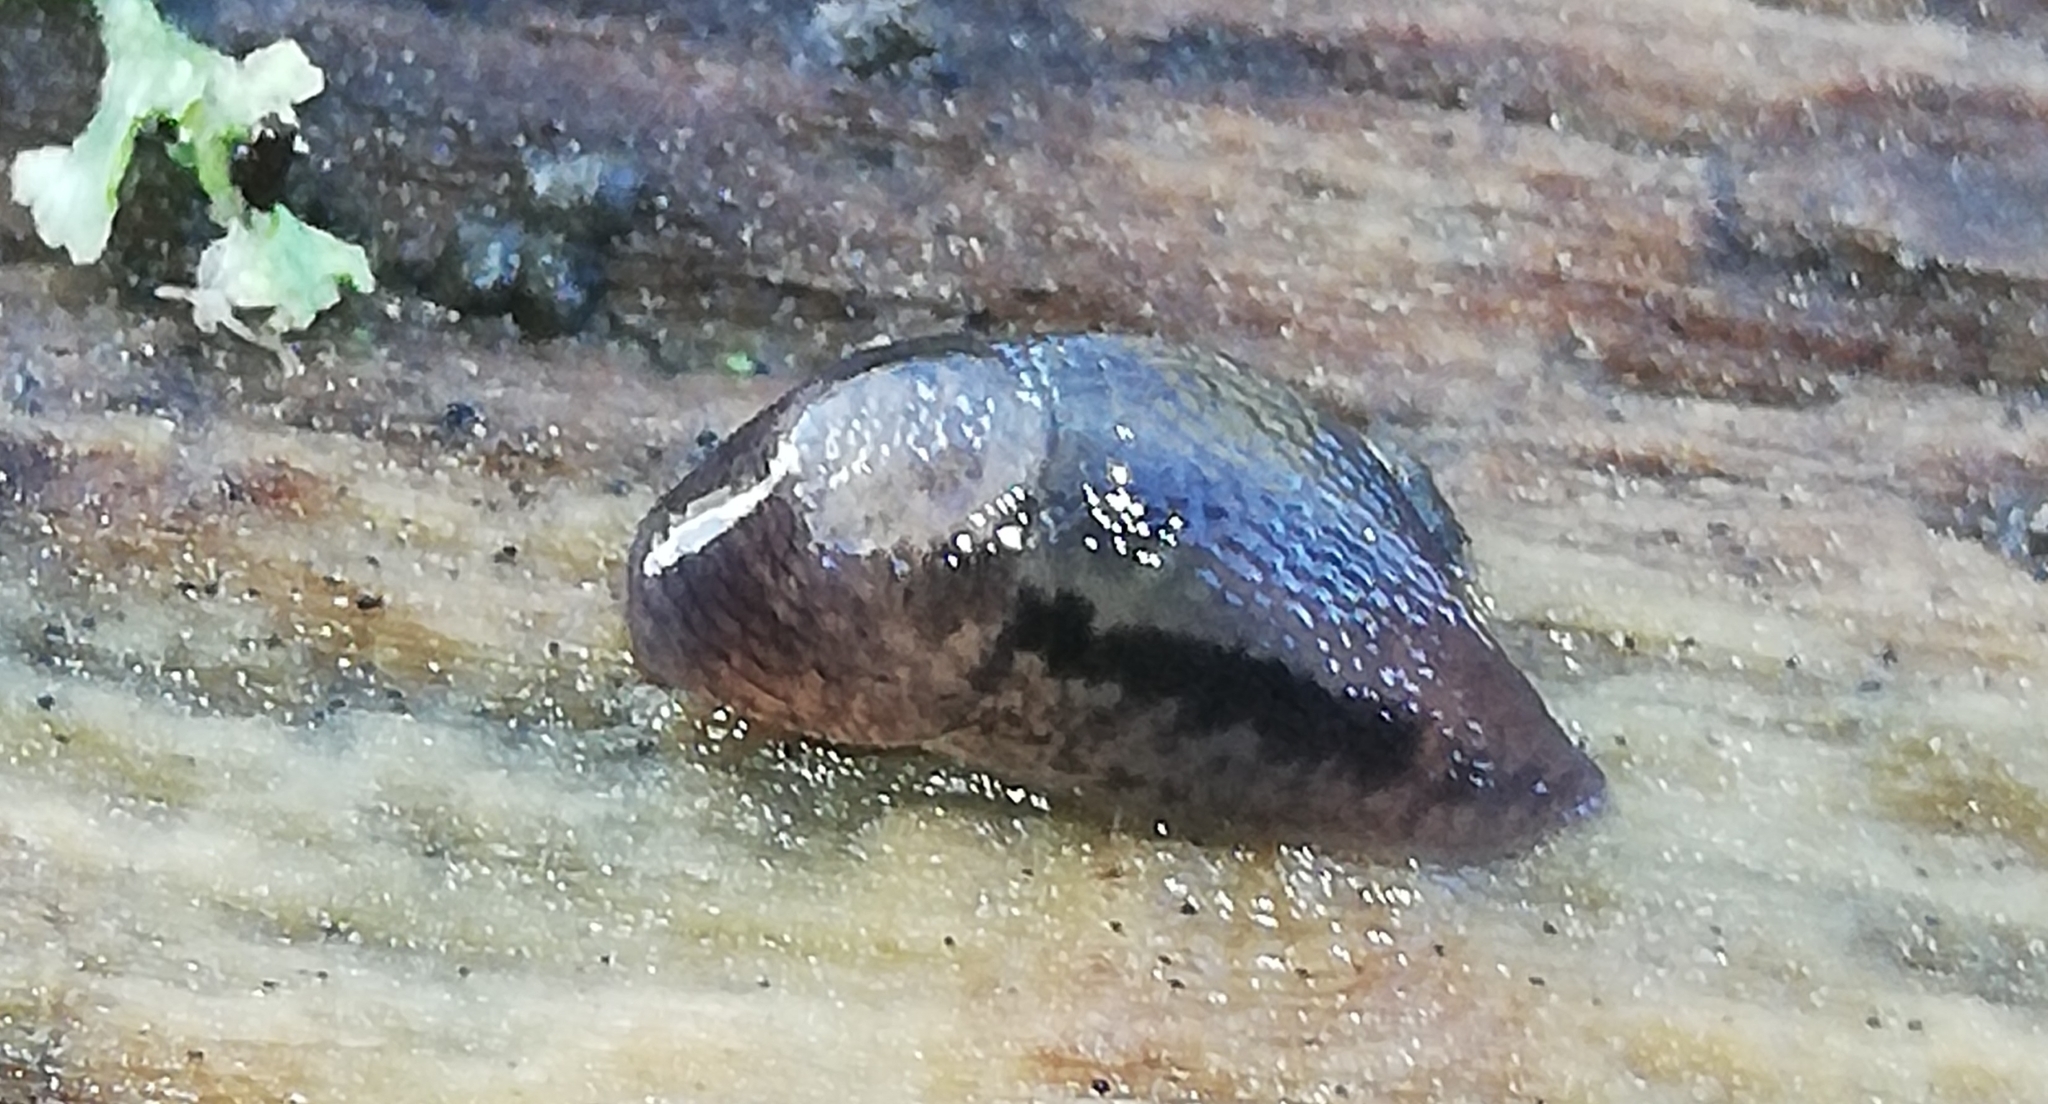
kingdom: Animalia
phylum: Mollusca
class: Gastropoda
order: Stylommatophora
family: Limacidae
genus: Limax
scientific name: Limax maximus
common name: Great grey slug
